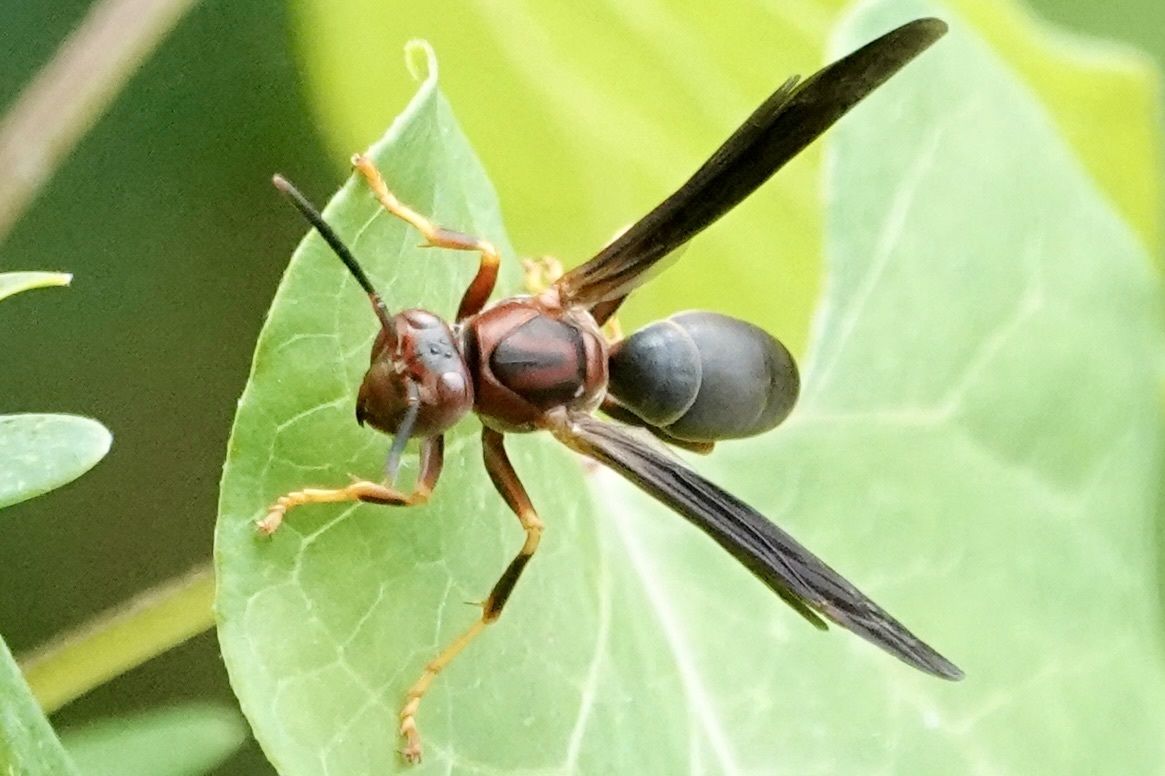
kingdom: Animalia
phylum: Arthropoda
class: Insecta
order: Hymenoptera
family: Eumenidae
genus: Polistes
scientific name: Polistes metricus
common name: Metric paper wasp
